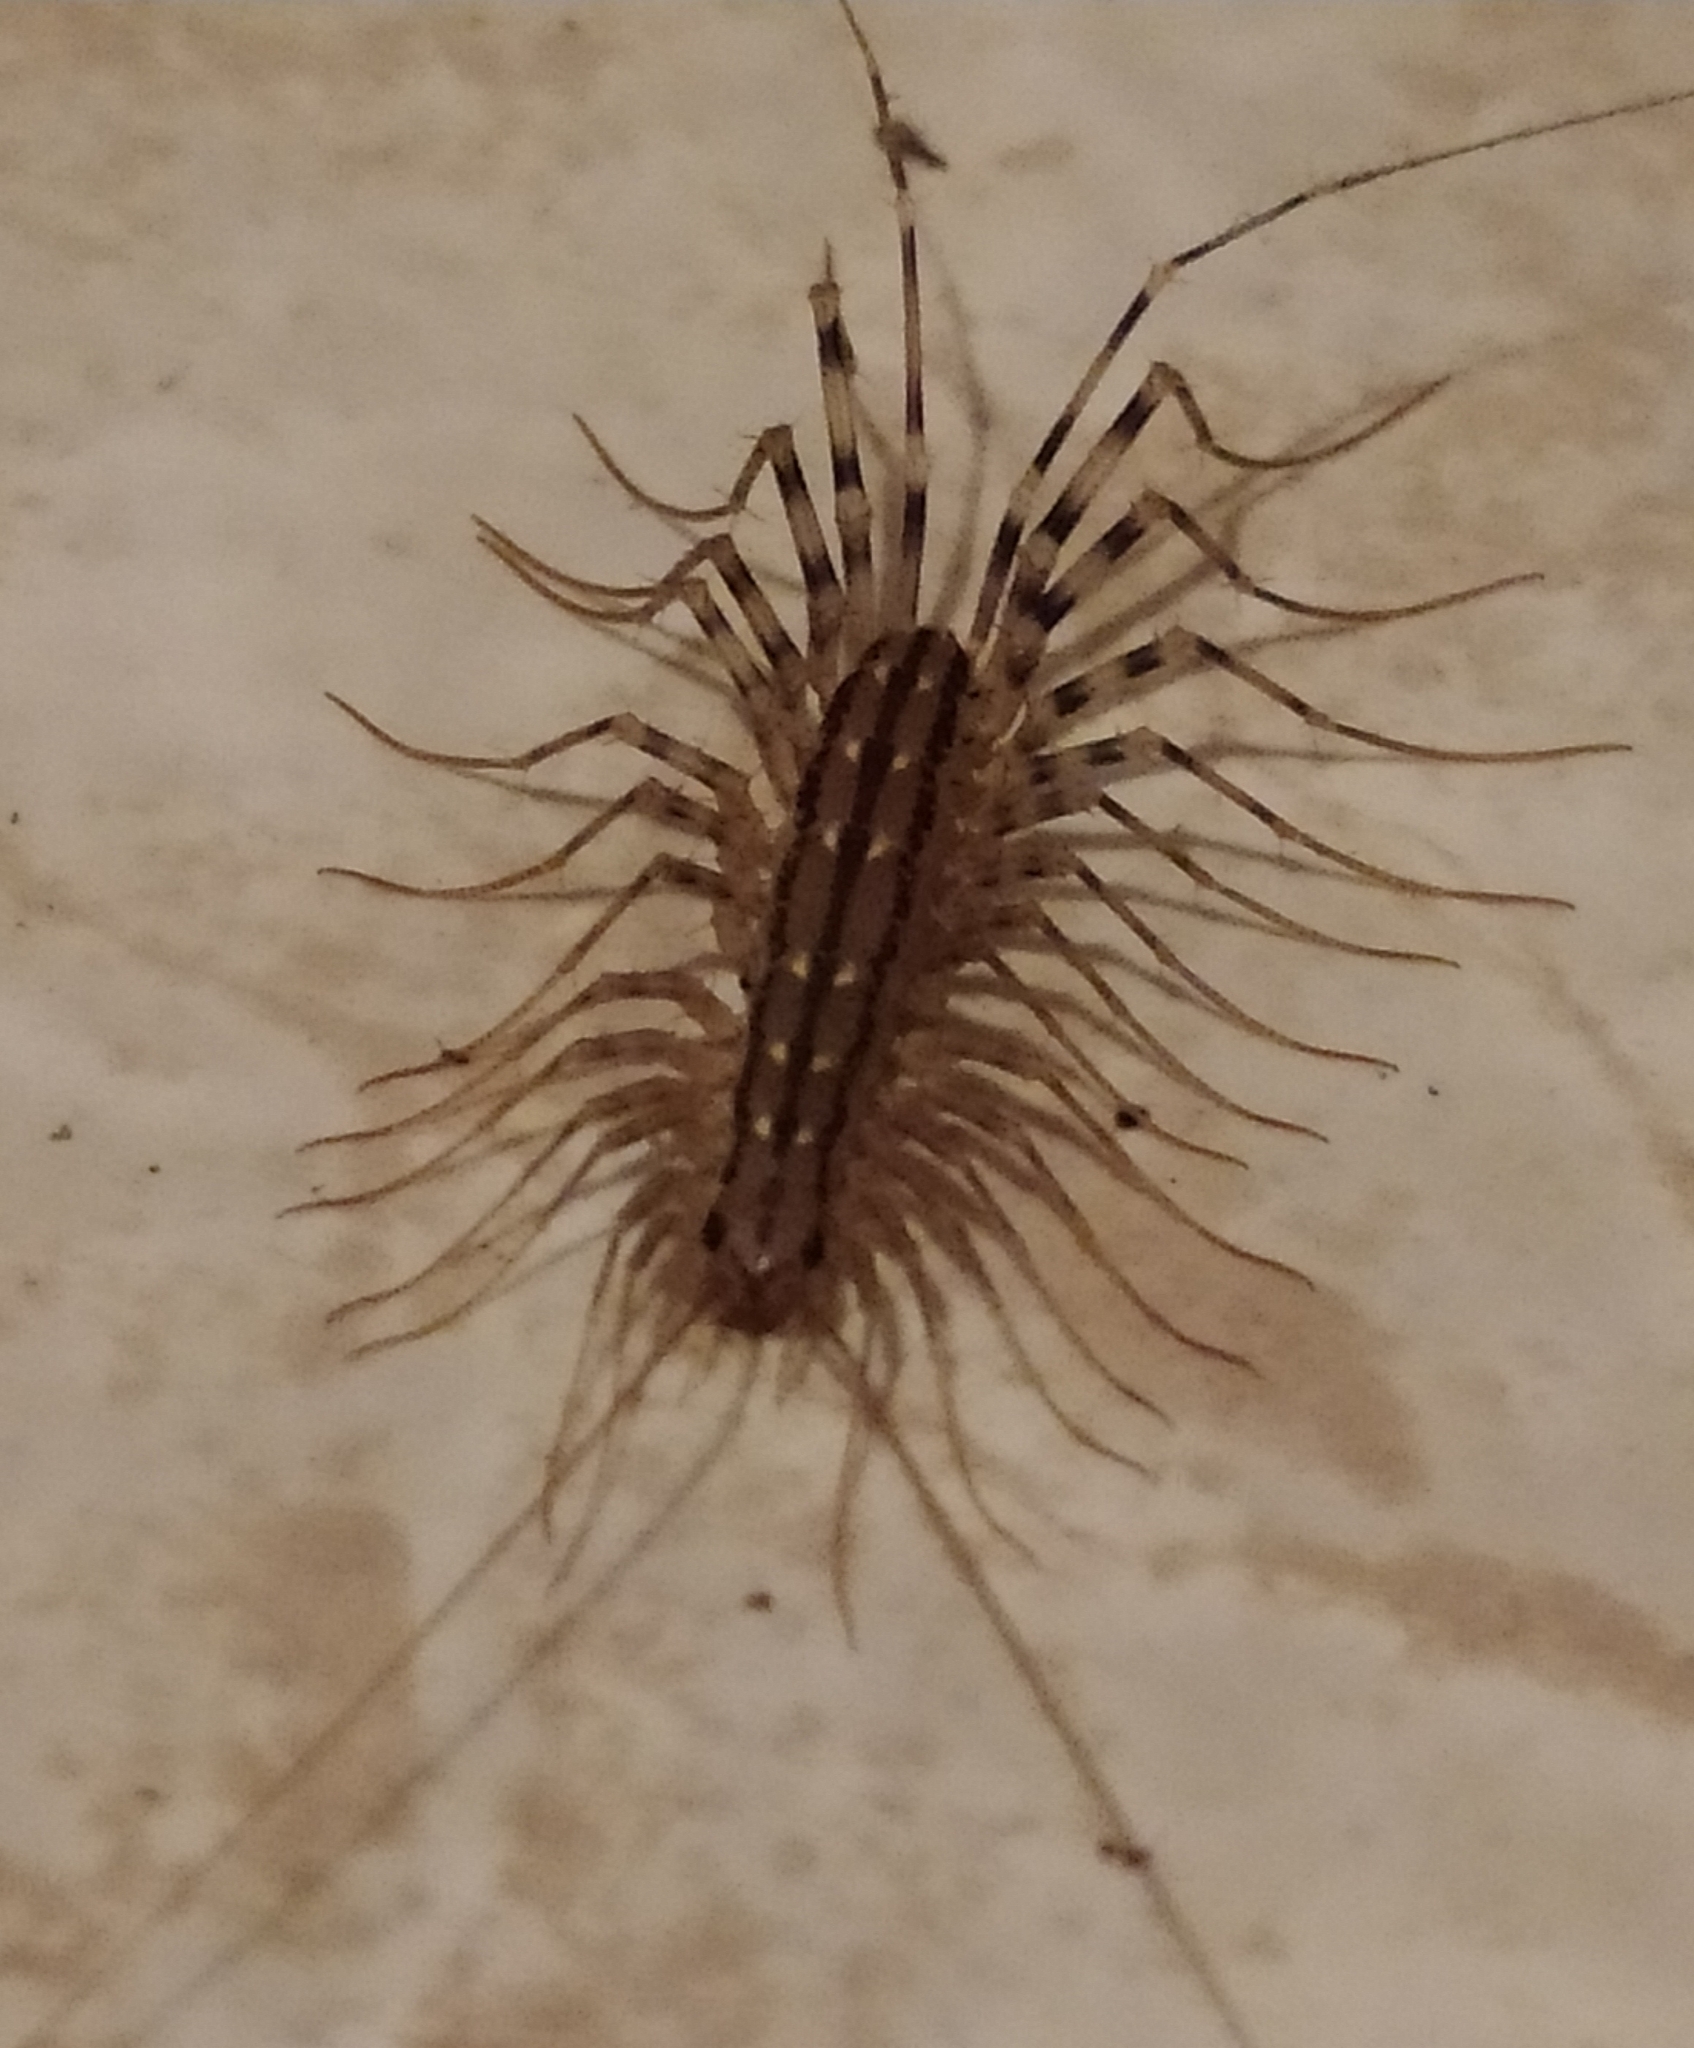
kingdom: Animalia
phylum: Arthropoda
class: Chilopoda
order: Scutigeromorpha
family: Scutigeridae
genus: Scutigera
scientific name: Scutigera coleoptrata
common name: House centipede
